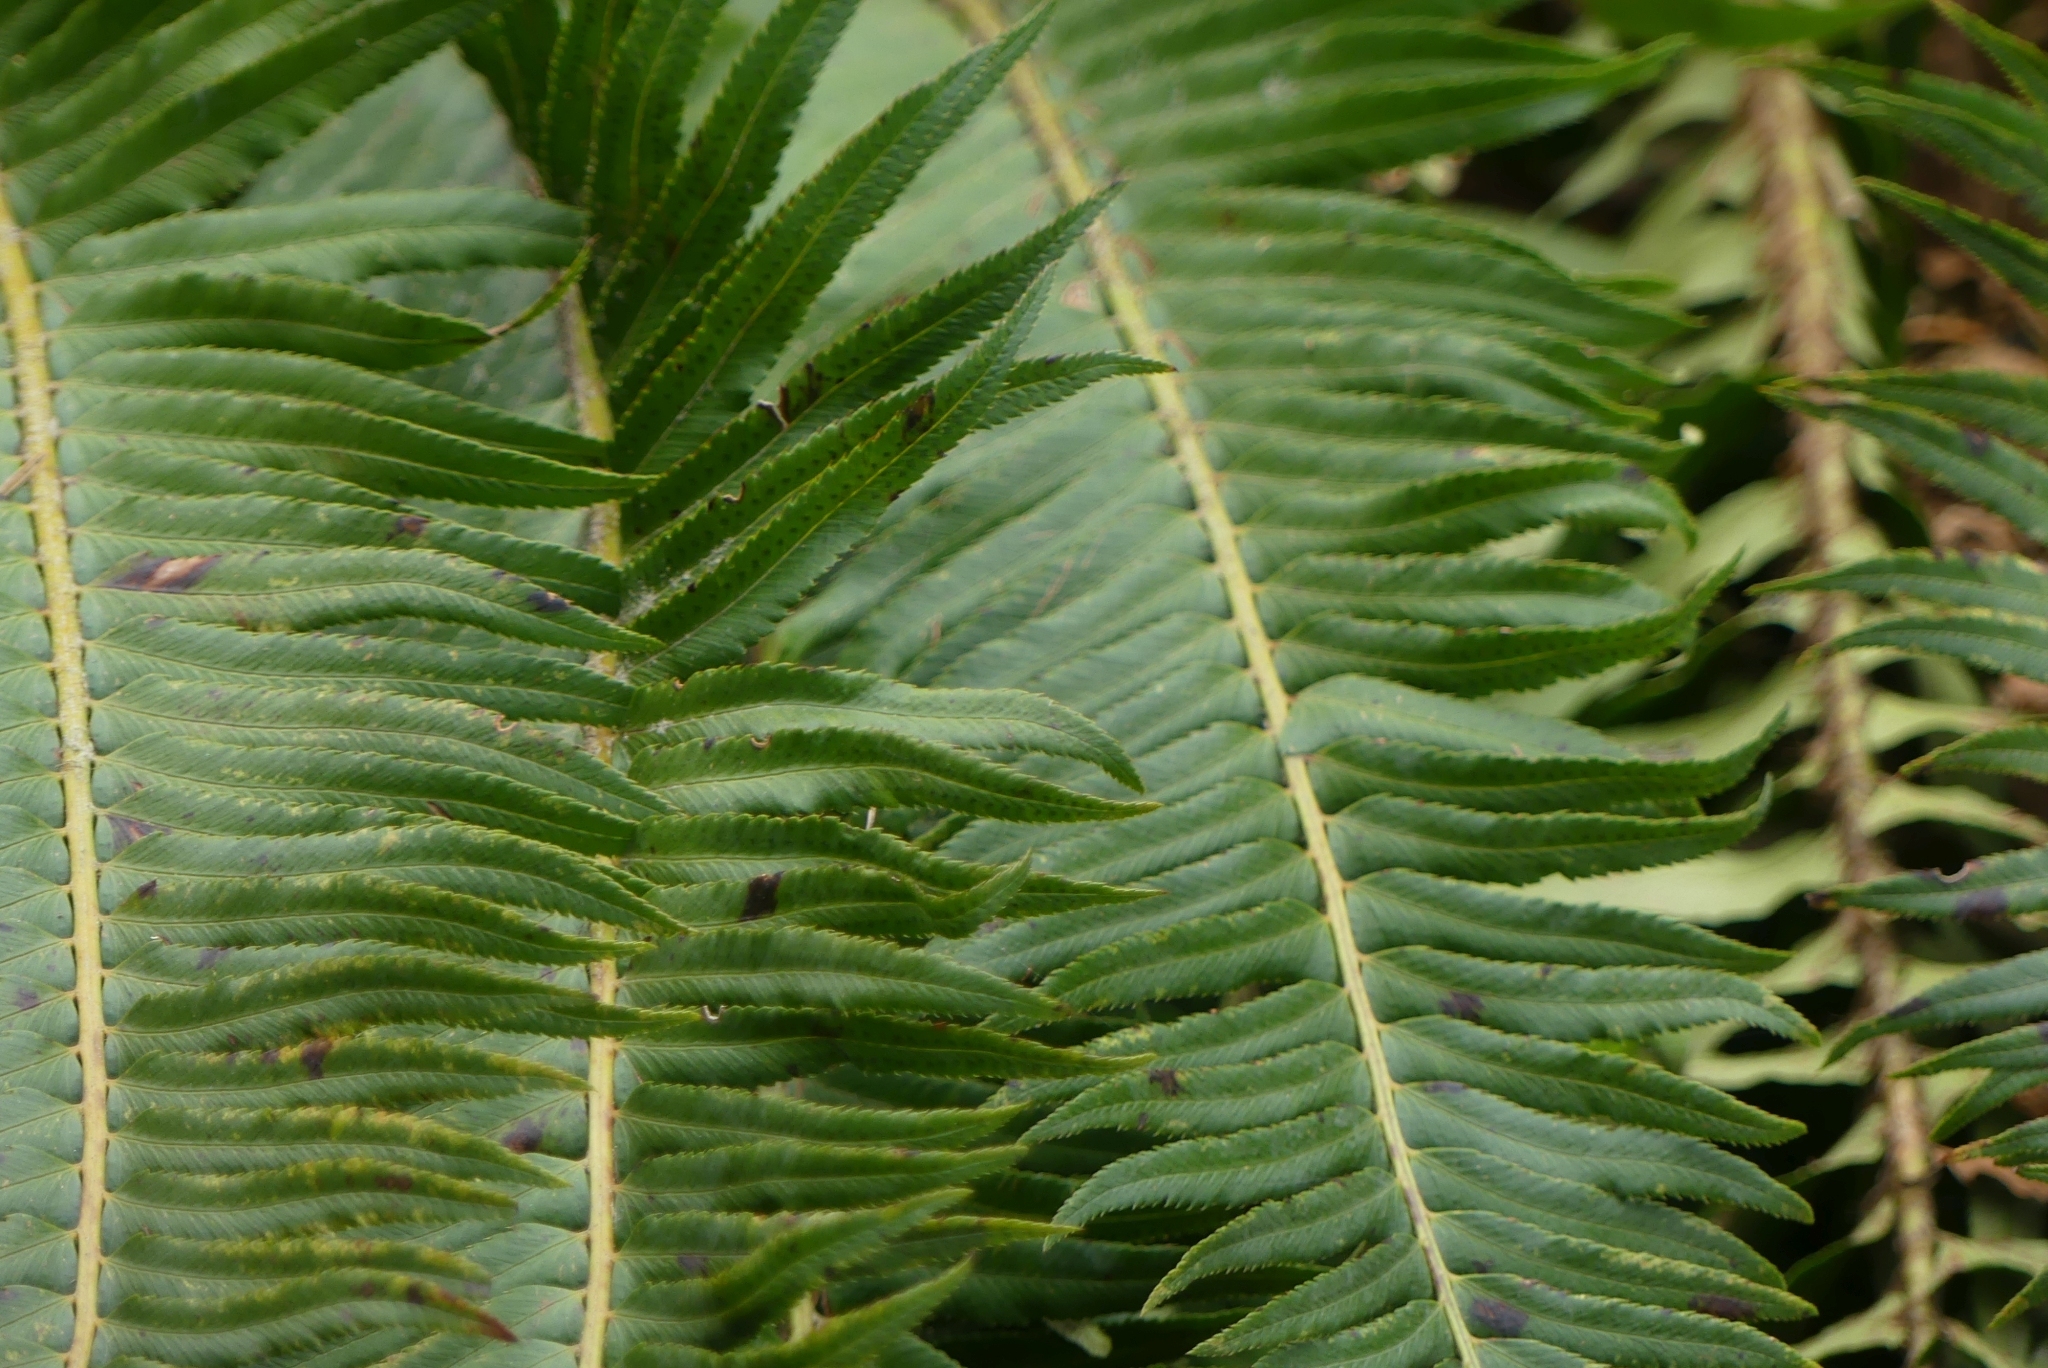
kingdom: Plantae
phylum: Tracheophyta
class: Polypodiopsida
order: Polypodiales
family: Dryopteridaceae
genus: Polystichum
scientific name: Polystichum munitum
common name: Western sword-fern
